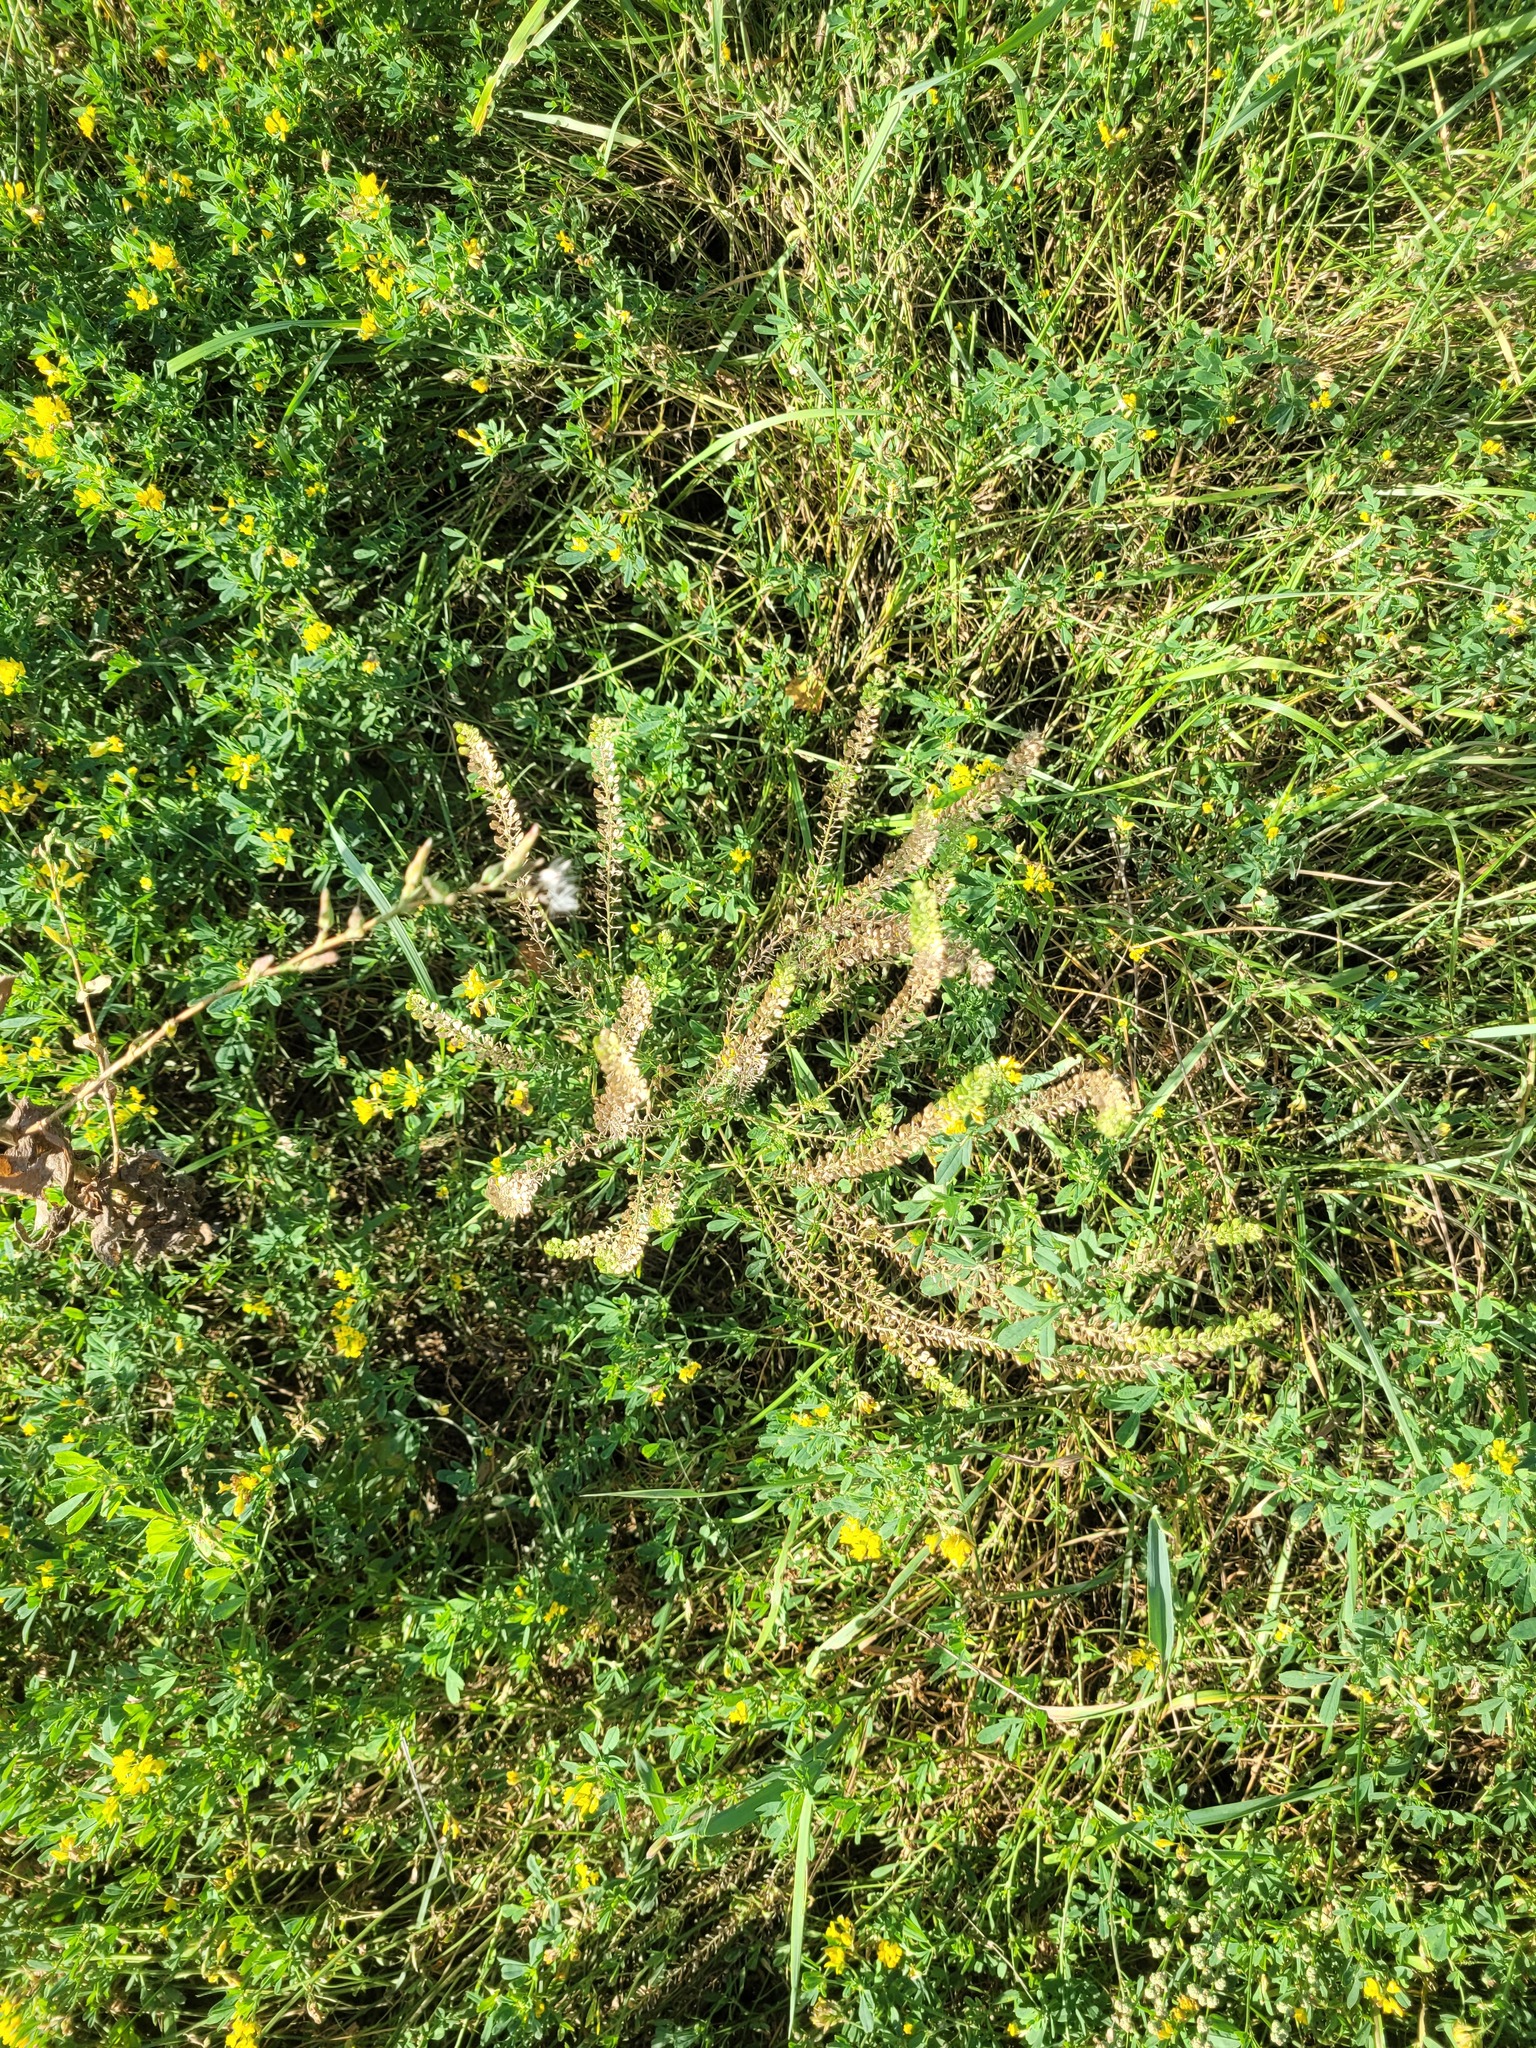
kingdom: Plantae
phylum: Tracheophyta
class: Magnoliopsida
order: Brassicales
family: Brassicaceae
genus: Lepidium
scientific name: Lepidium densiflorum
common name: Miner's pepperwort
